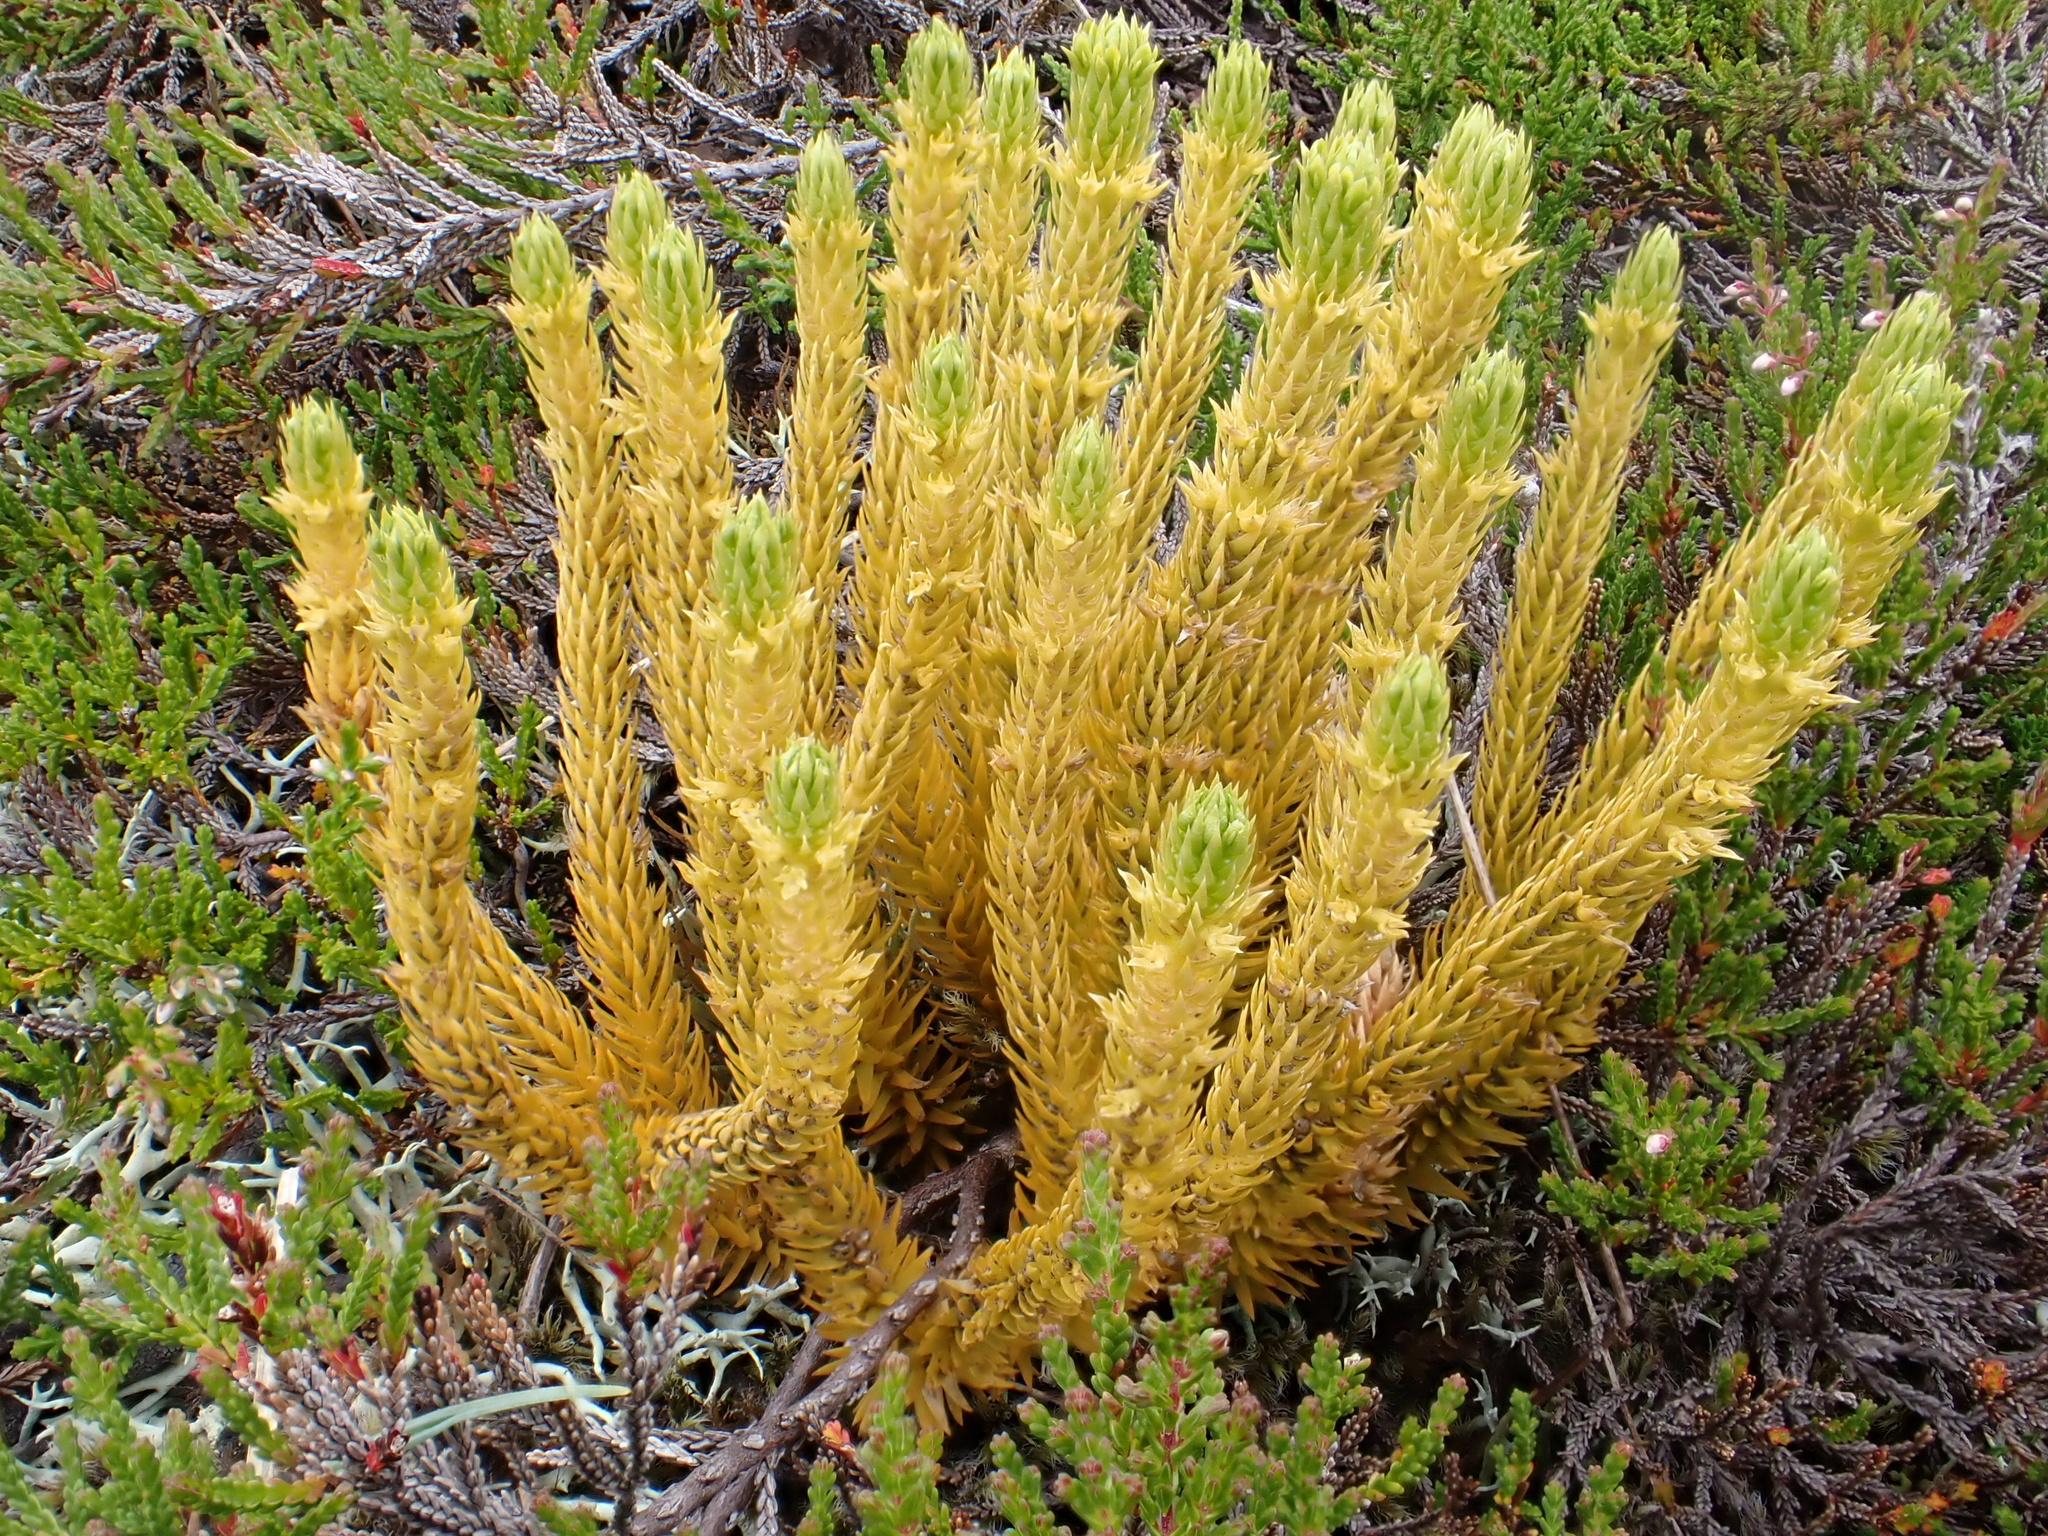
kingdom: Plantae
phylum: Tracheophyta
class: Lycopodiopsida
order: Lycopodiales
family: Lycopodiaceae
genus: Huperzia
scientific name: Huperzia selago
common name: Northern firmoss
